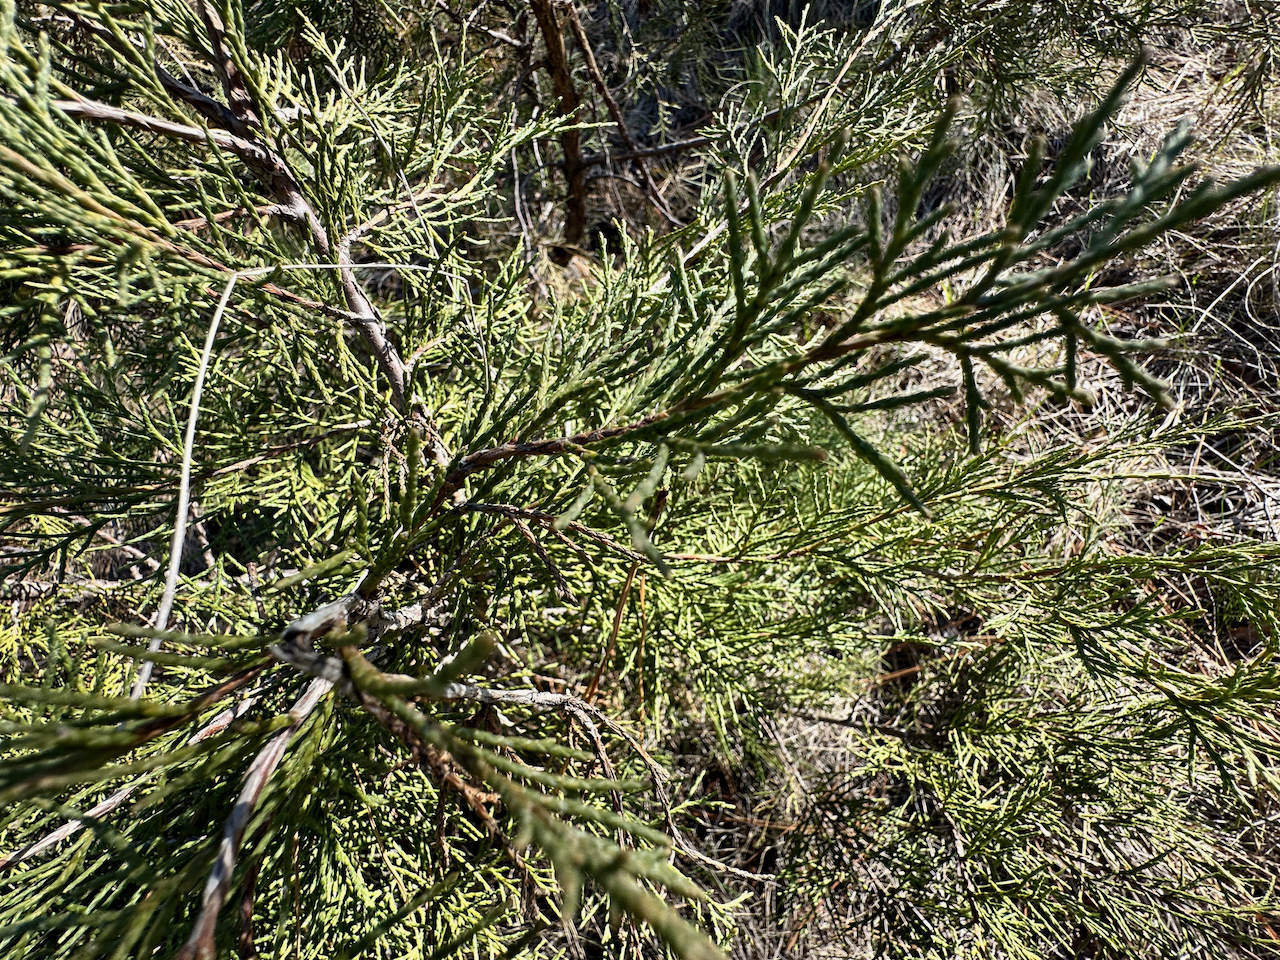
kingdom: Plantae
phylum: Tracheophyta
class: Pinopsida
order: Pinales
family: Cupressaceae
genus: Juniperus
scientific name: Juniperus scopulorum
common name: Rocky mountain juniper
